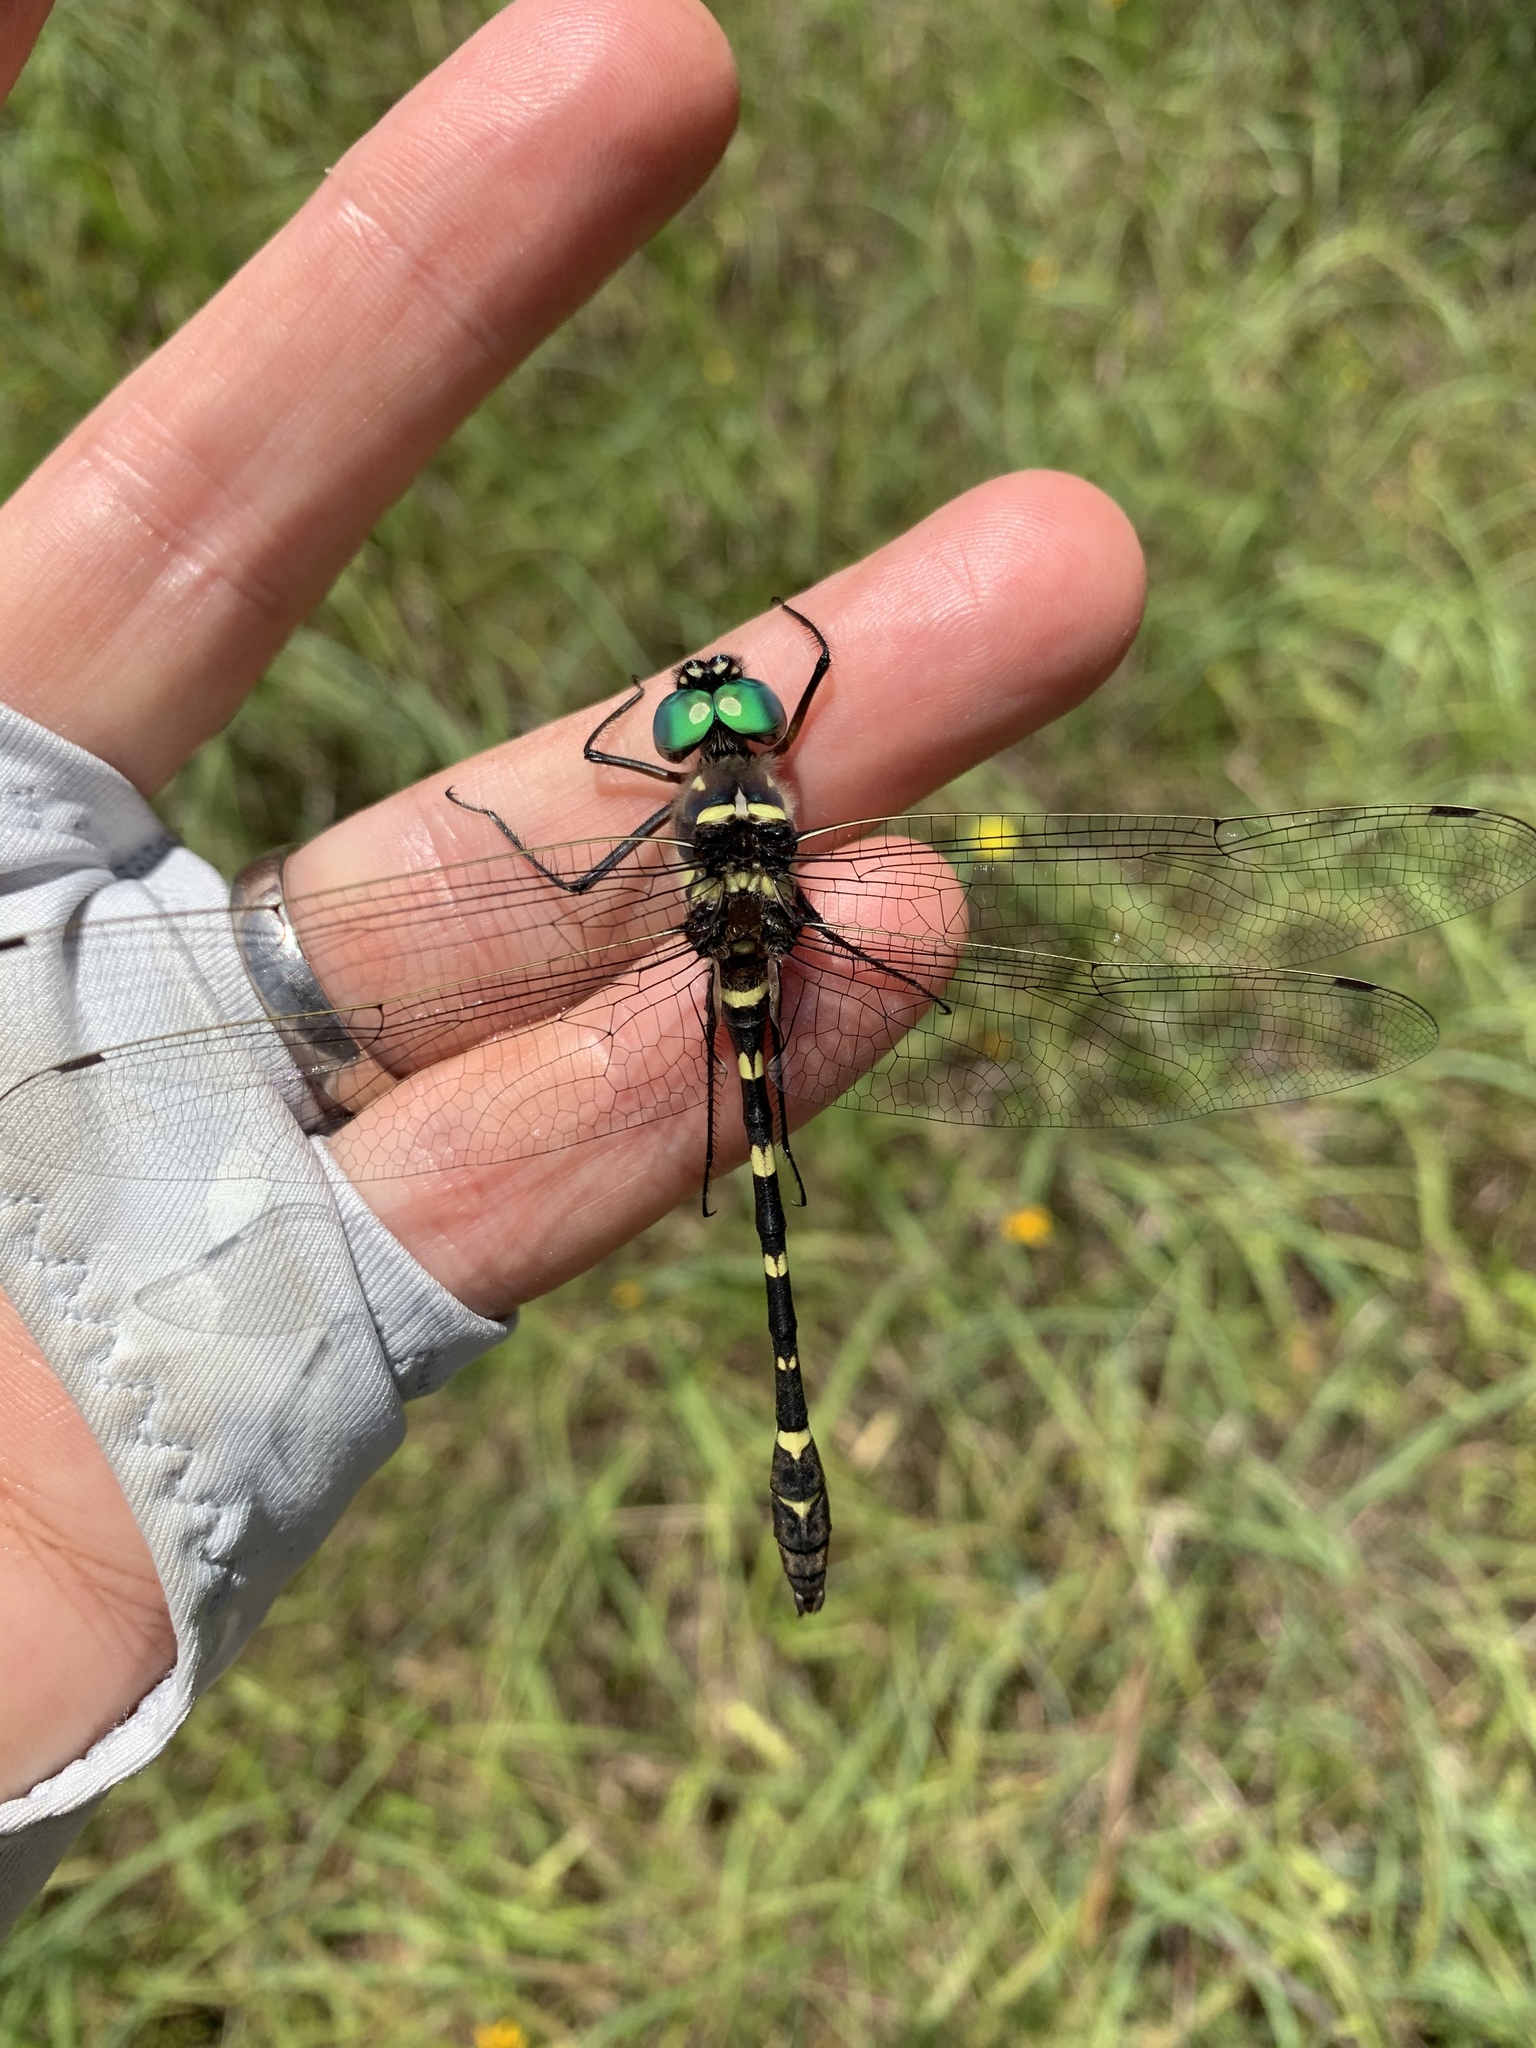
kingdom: Animalia
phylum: Arthropoda
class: Insecta
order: Odonata
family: Macromiidae
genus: Macromia
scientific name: Macromia illinoiensis
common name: Swift river cruiser
